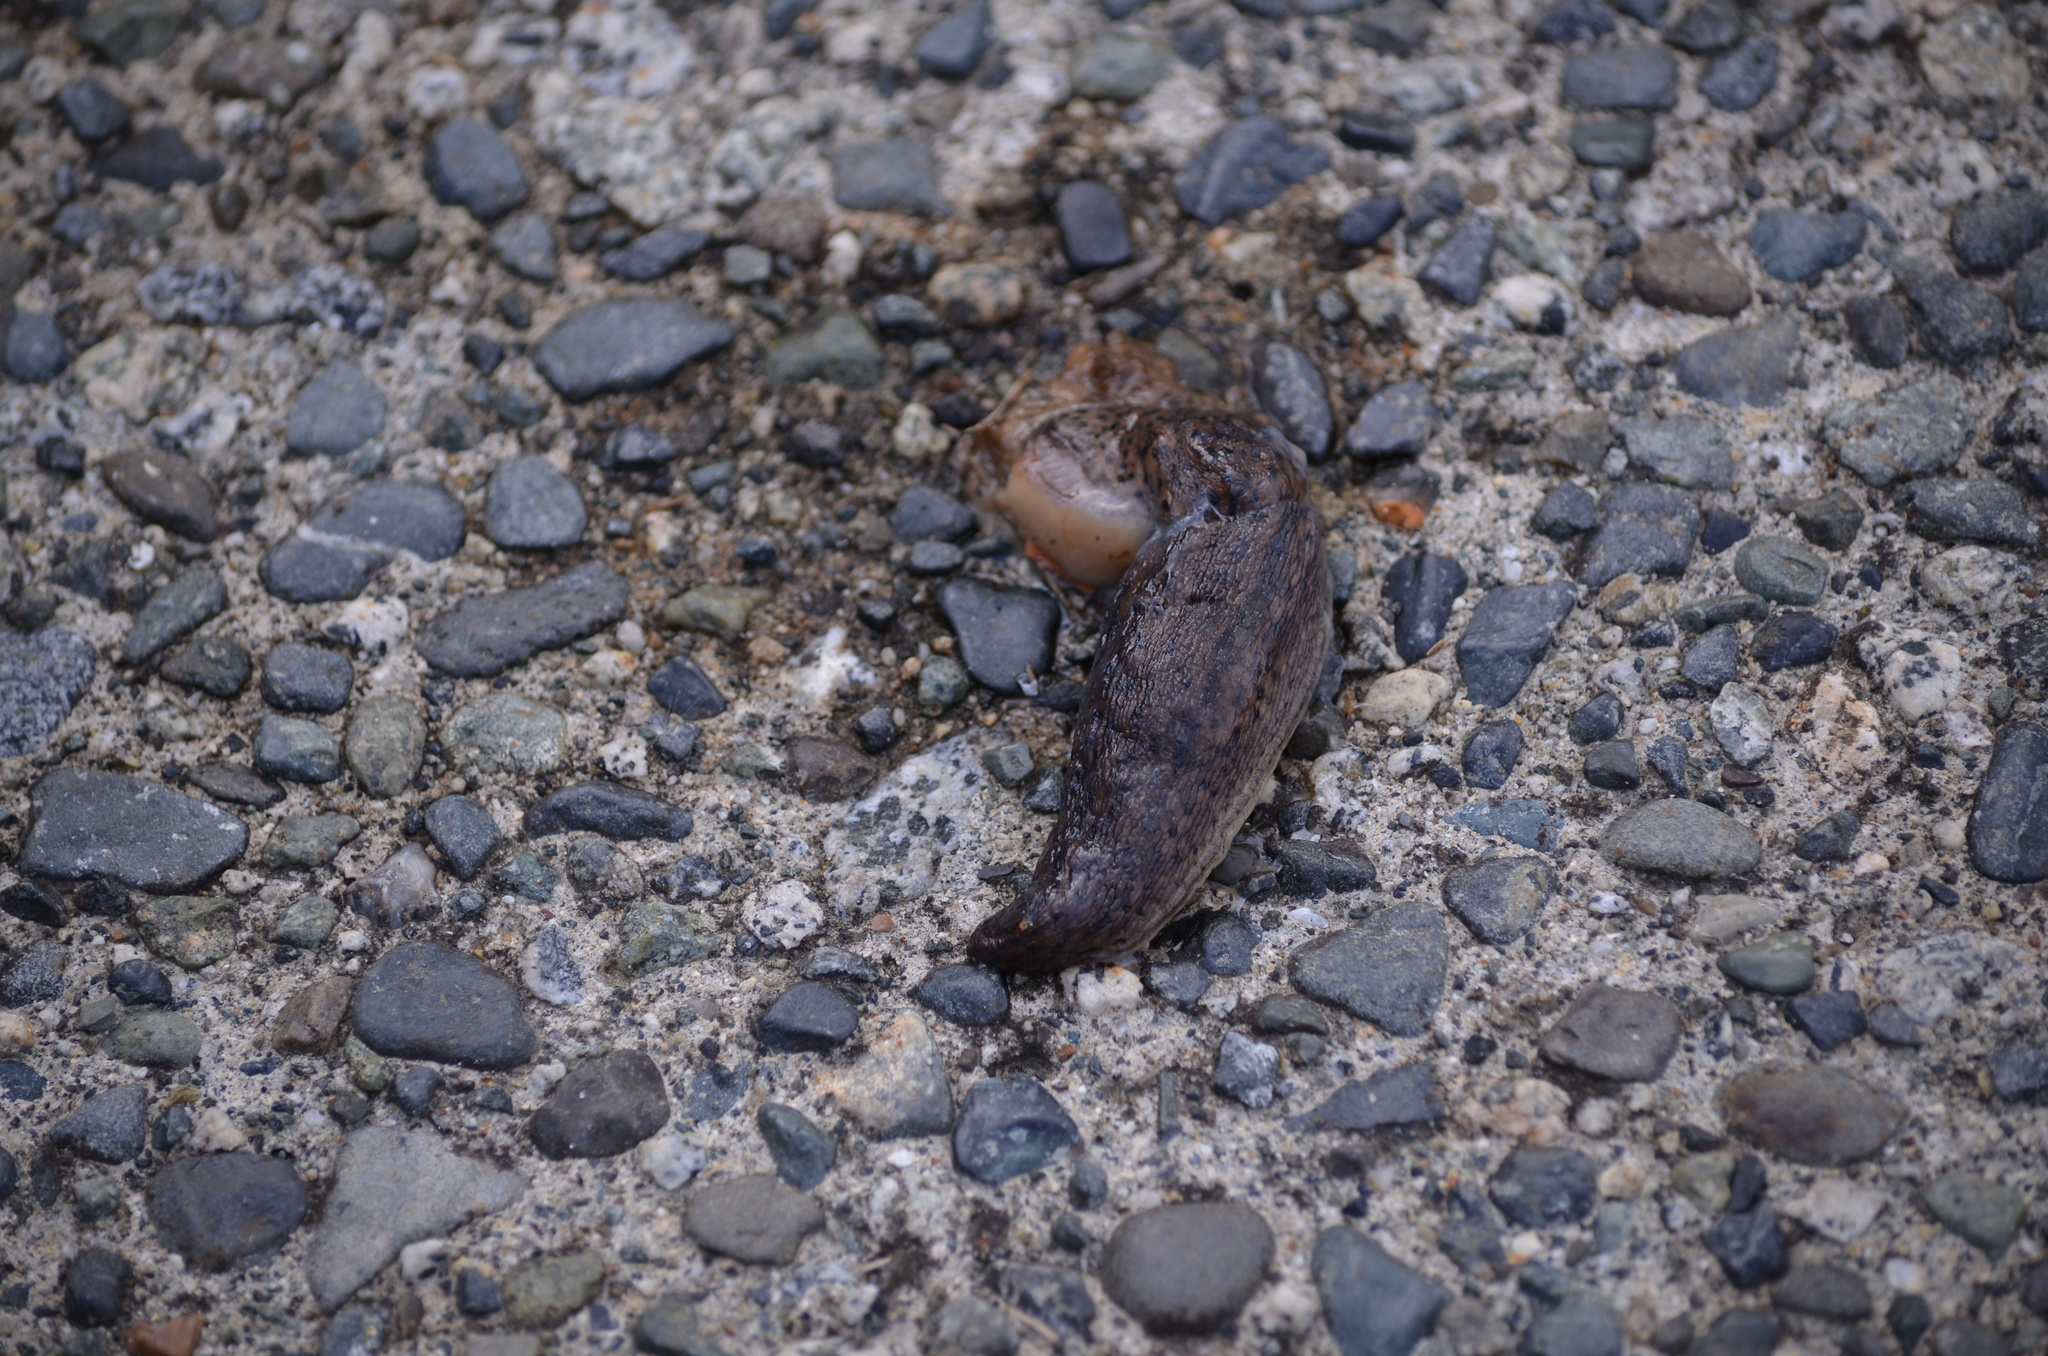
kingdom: Animalia
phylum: Mollusca
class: Gastropoda
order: Stylommatophora
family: Limacidae
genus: Limax
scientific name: Limax maximus
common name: Great grey slug
